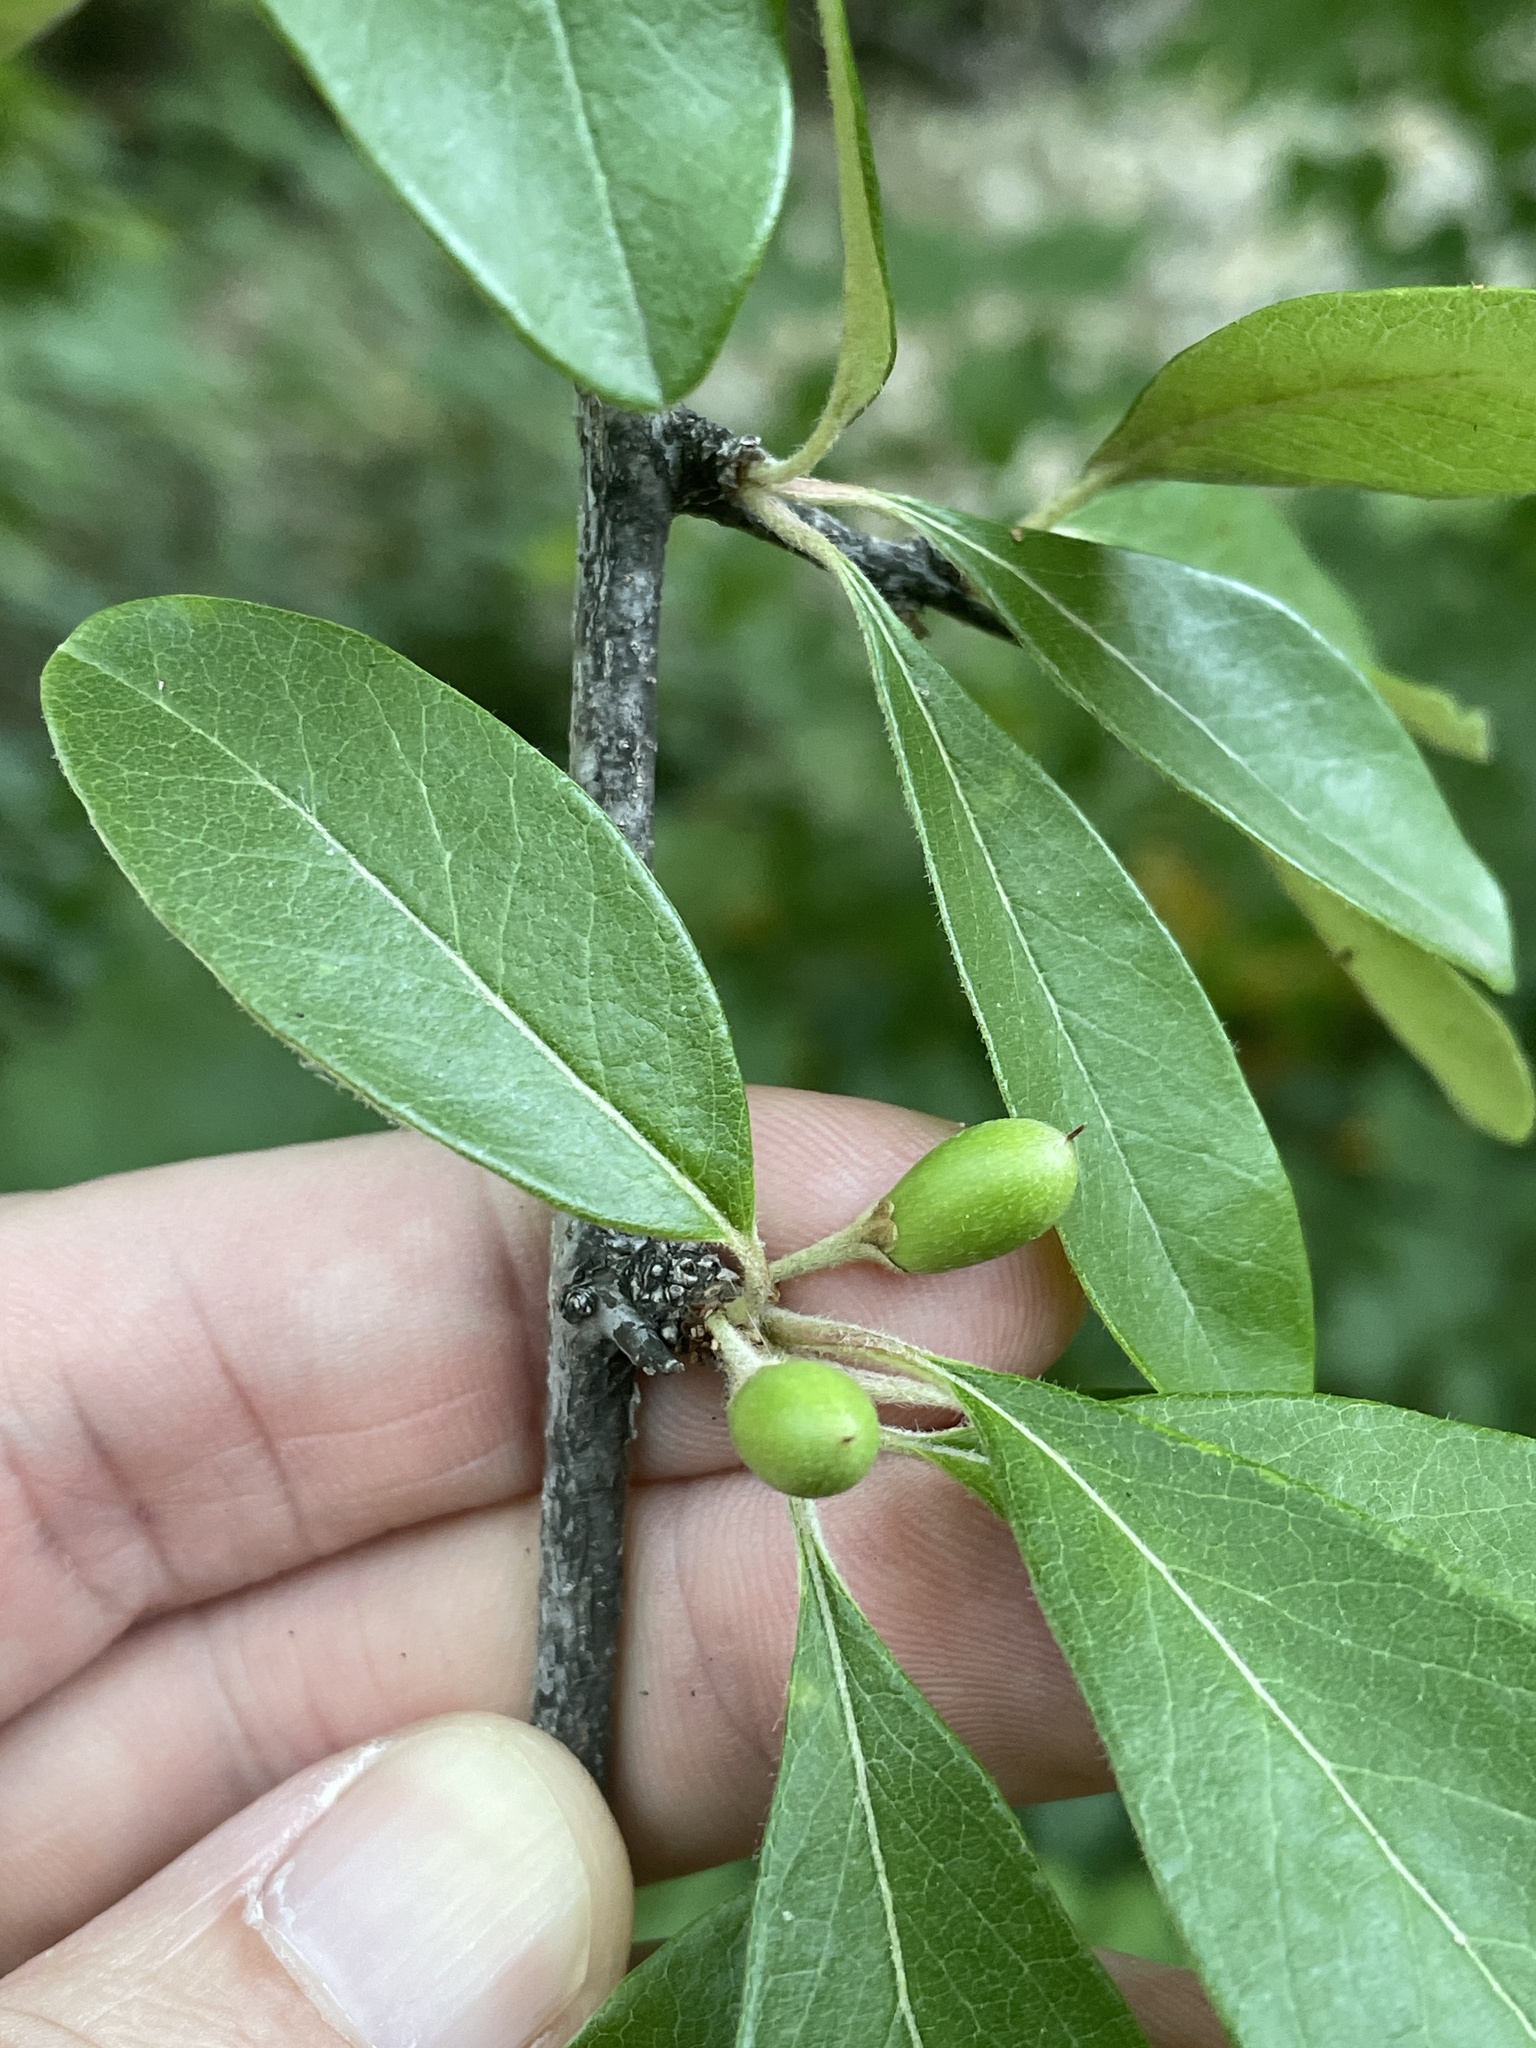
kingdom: Plantae
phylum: Tracheophyta
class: Magnoliopsida
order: Ericales
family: Sapotaceae
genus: Sideroxylon
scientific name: Sideroxylon lanuginosum
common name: Chittamwood
